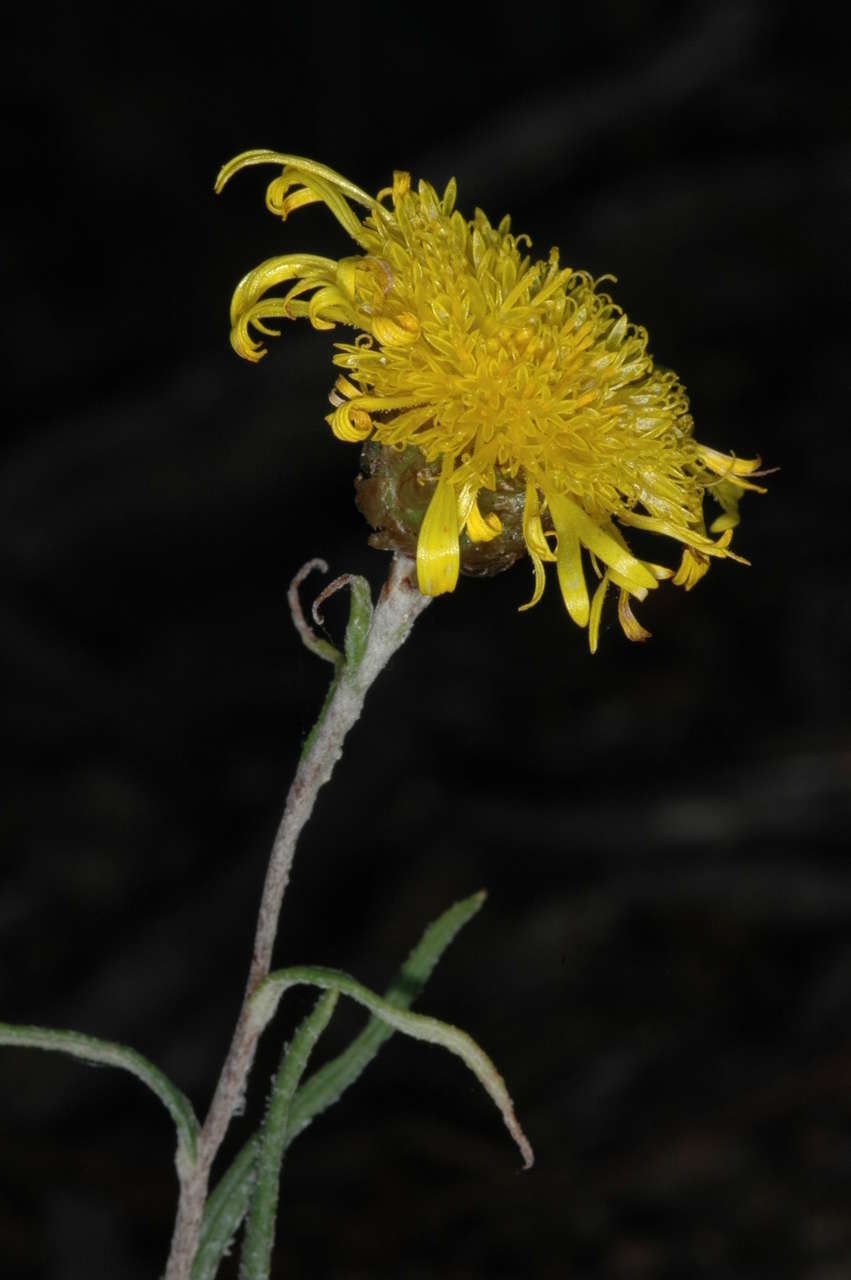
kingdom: Plantae
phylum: Tracheophyta
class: Magnoliopsida
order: Asterales
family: Asteraceae
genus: Podolepis
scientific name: Podolepis decipiens
